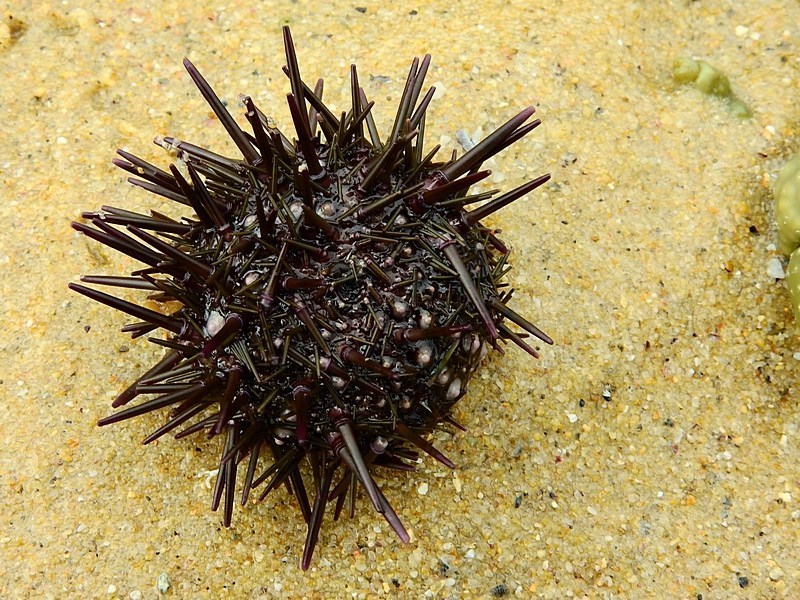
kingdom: Animalia
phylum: Echinodermata
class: Echinoidea
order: Camarodonta
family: Echinometridae
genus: Heliocidaris
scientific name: Heliocidaris erythrogramma
